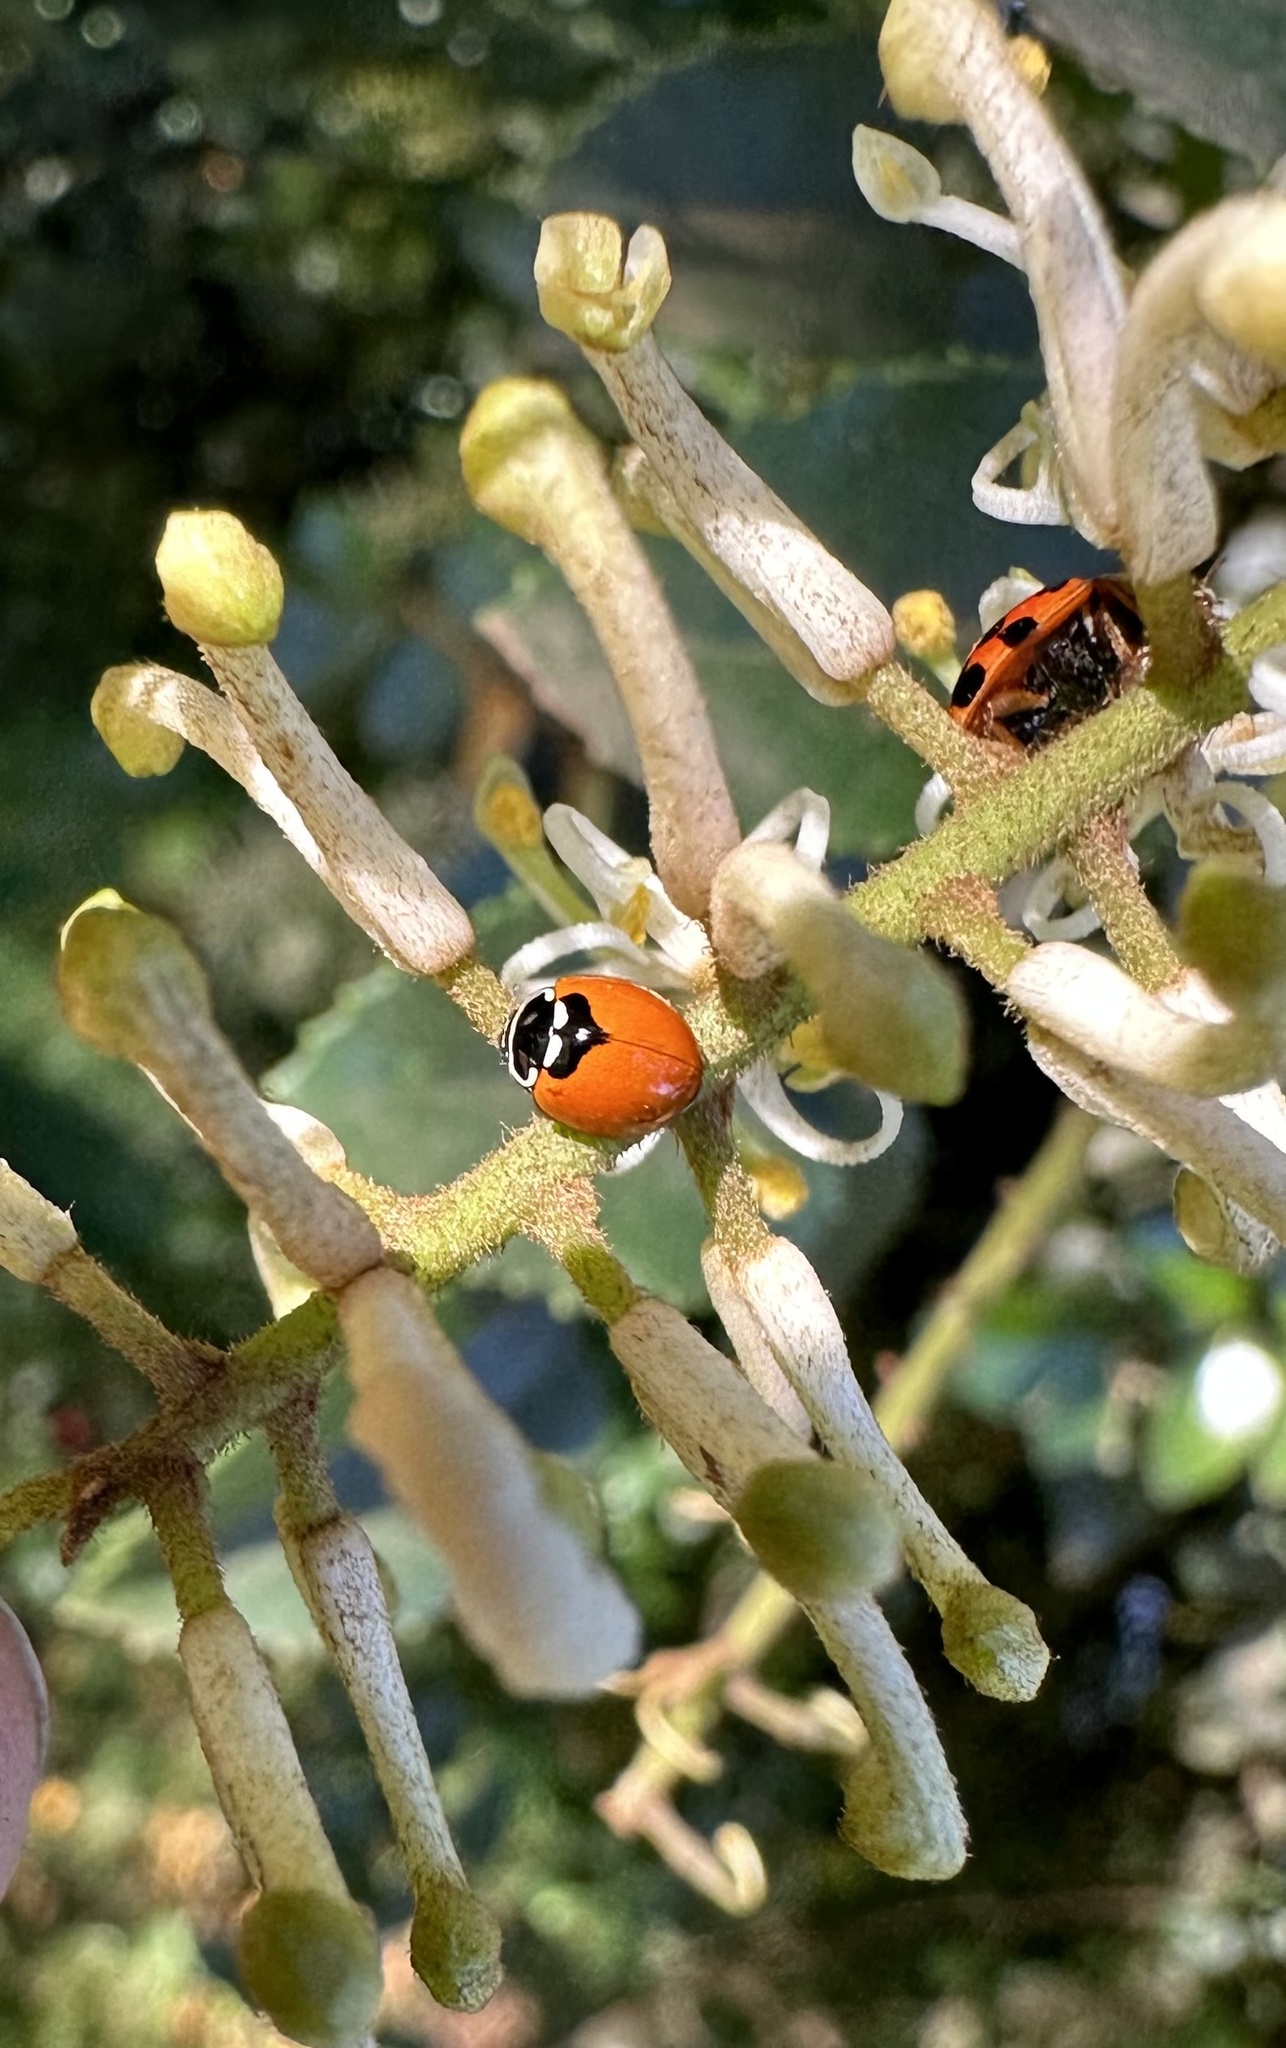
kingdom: Animalia
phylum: Arthropoda
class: Insecta
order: Coleoptera
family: Coccinellidae
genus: Adalia
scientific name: Adalia deficiens
